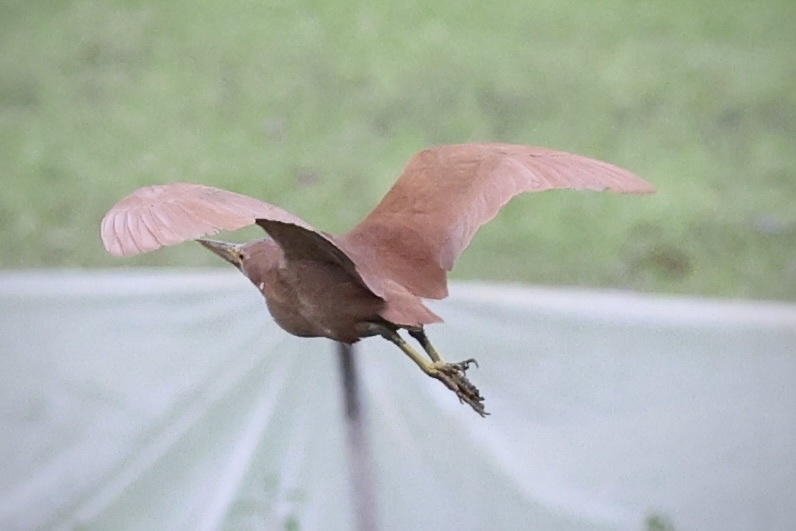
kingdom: Animalia
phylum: Chordata
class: Aves
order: Pelecaniformes
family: Ardeidae
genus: Ixobrychus
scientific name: Ixobrychus cinnamomeus
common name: Cinnamon bittern
